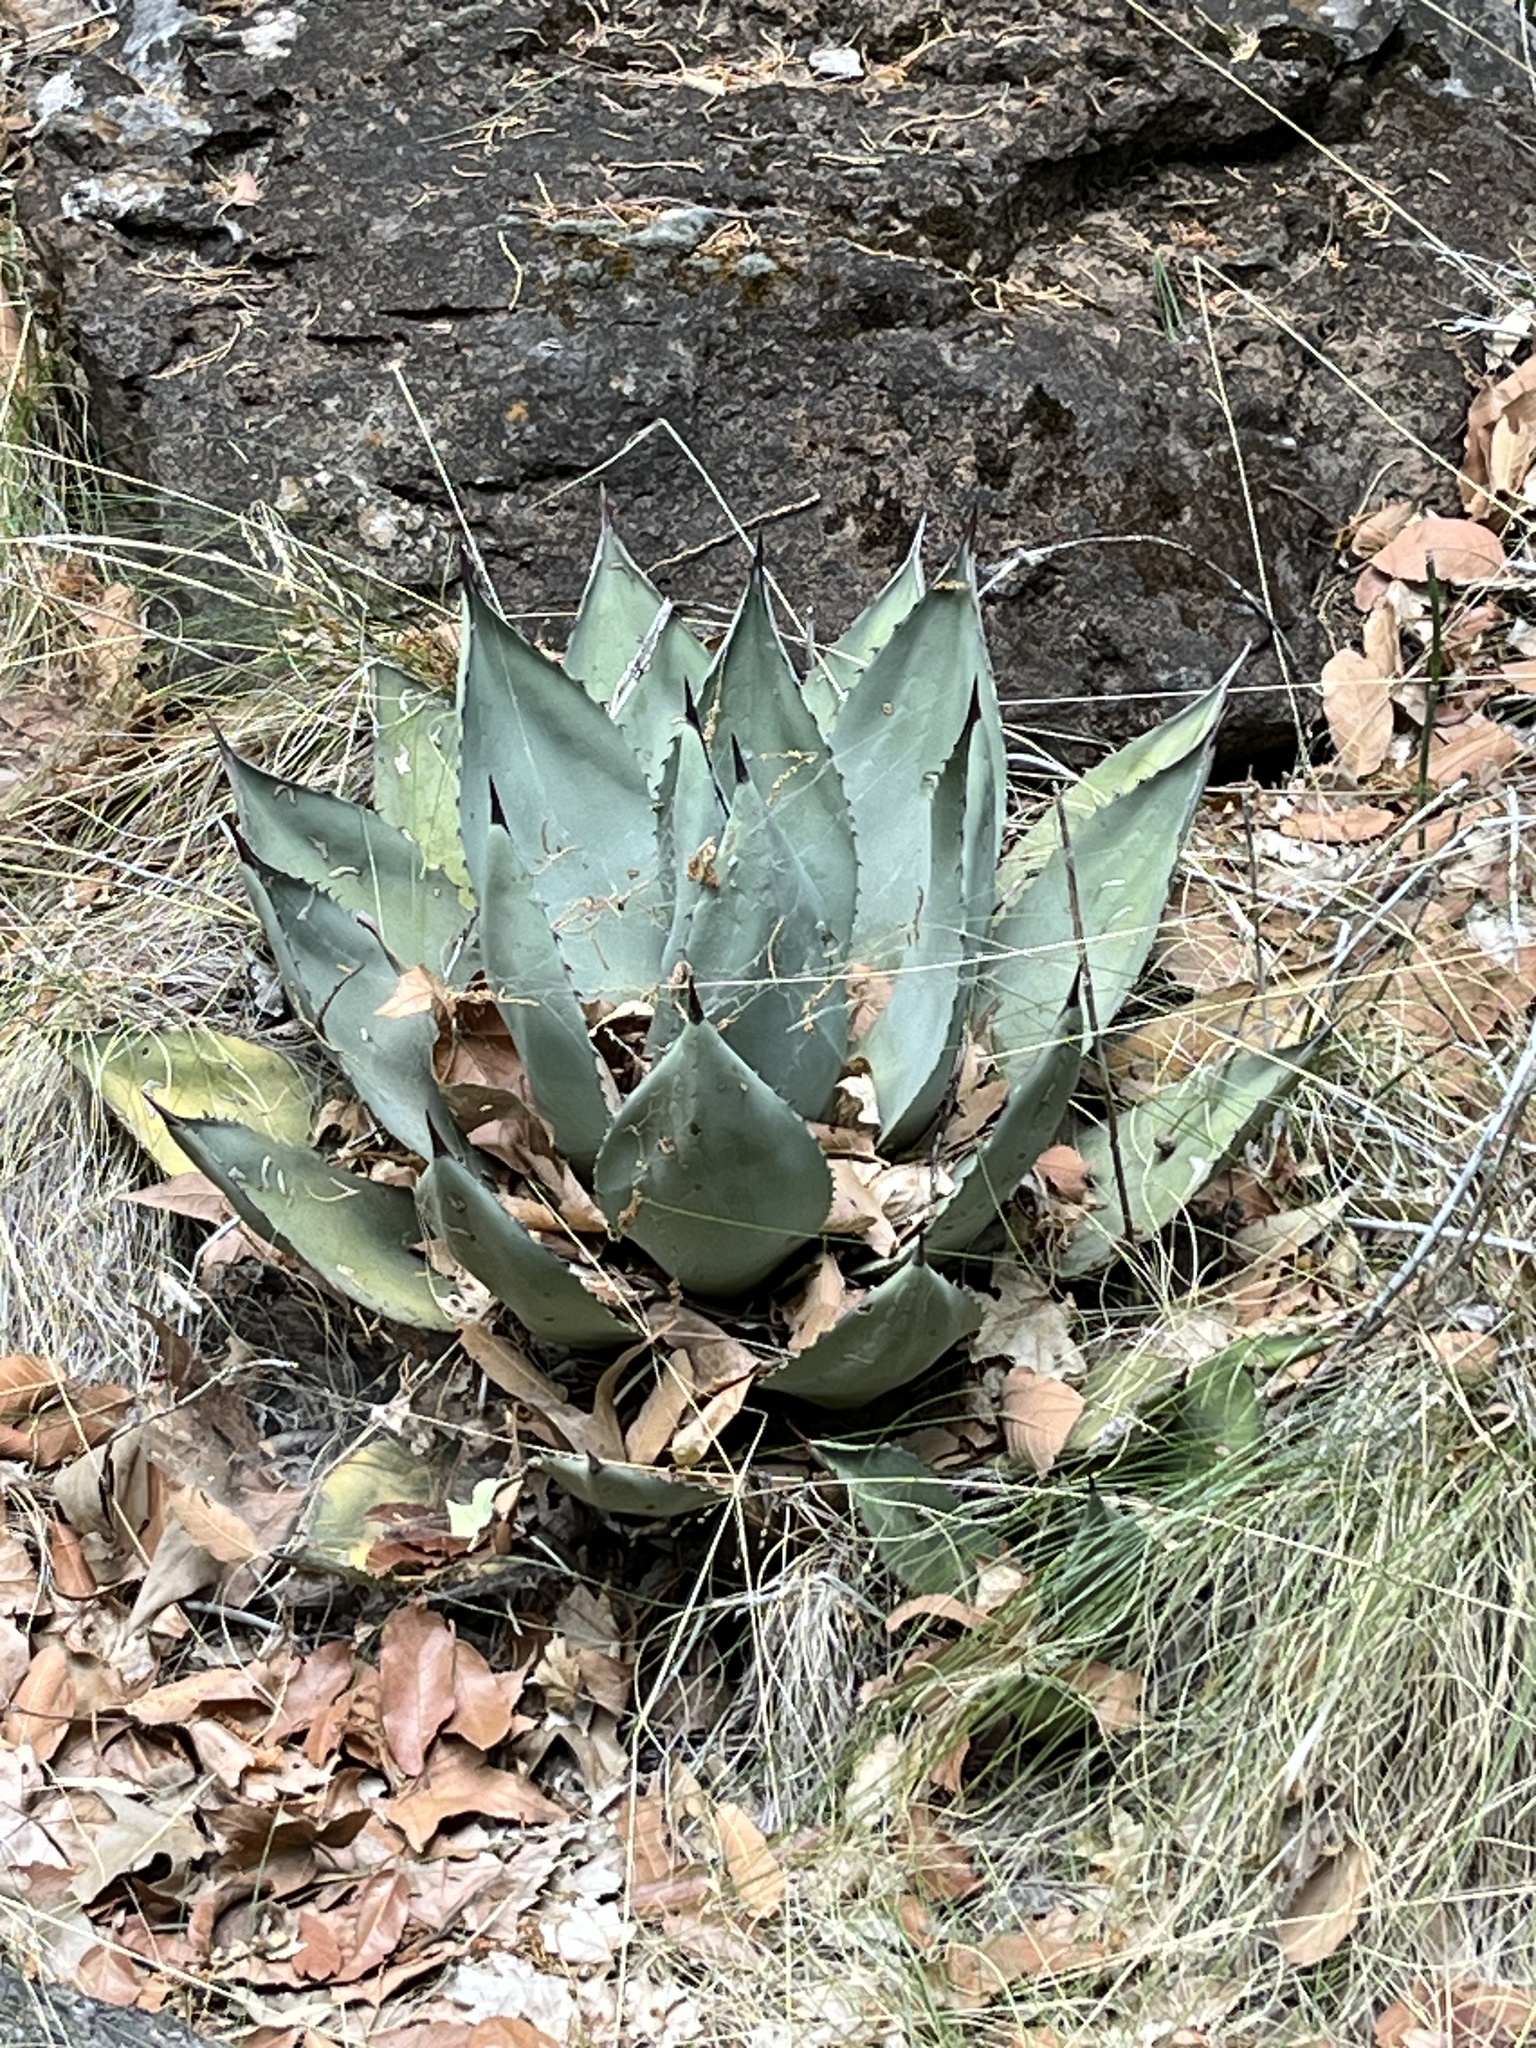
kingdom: Plantae
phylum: Tracheophyta
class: Liliopsida
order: Asparagales
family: Asparagaceae
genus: Agave
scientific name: Agave parryi
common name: Parry's agave
